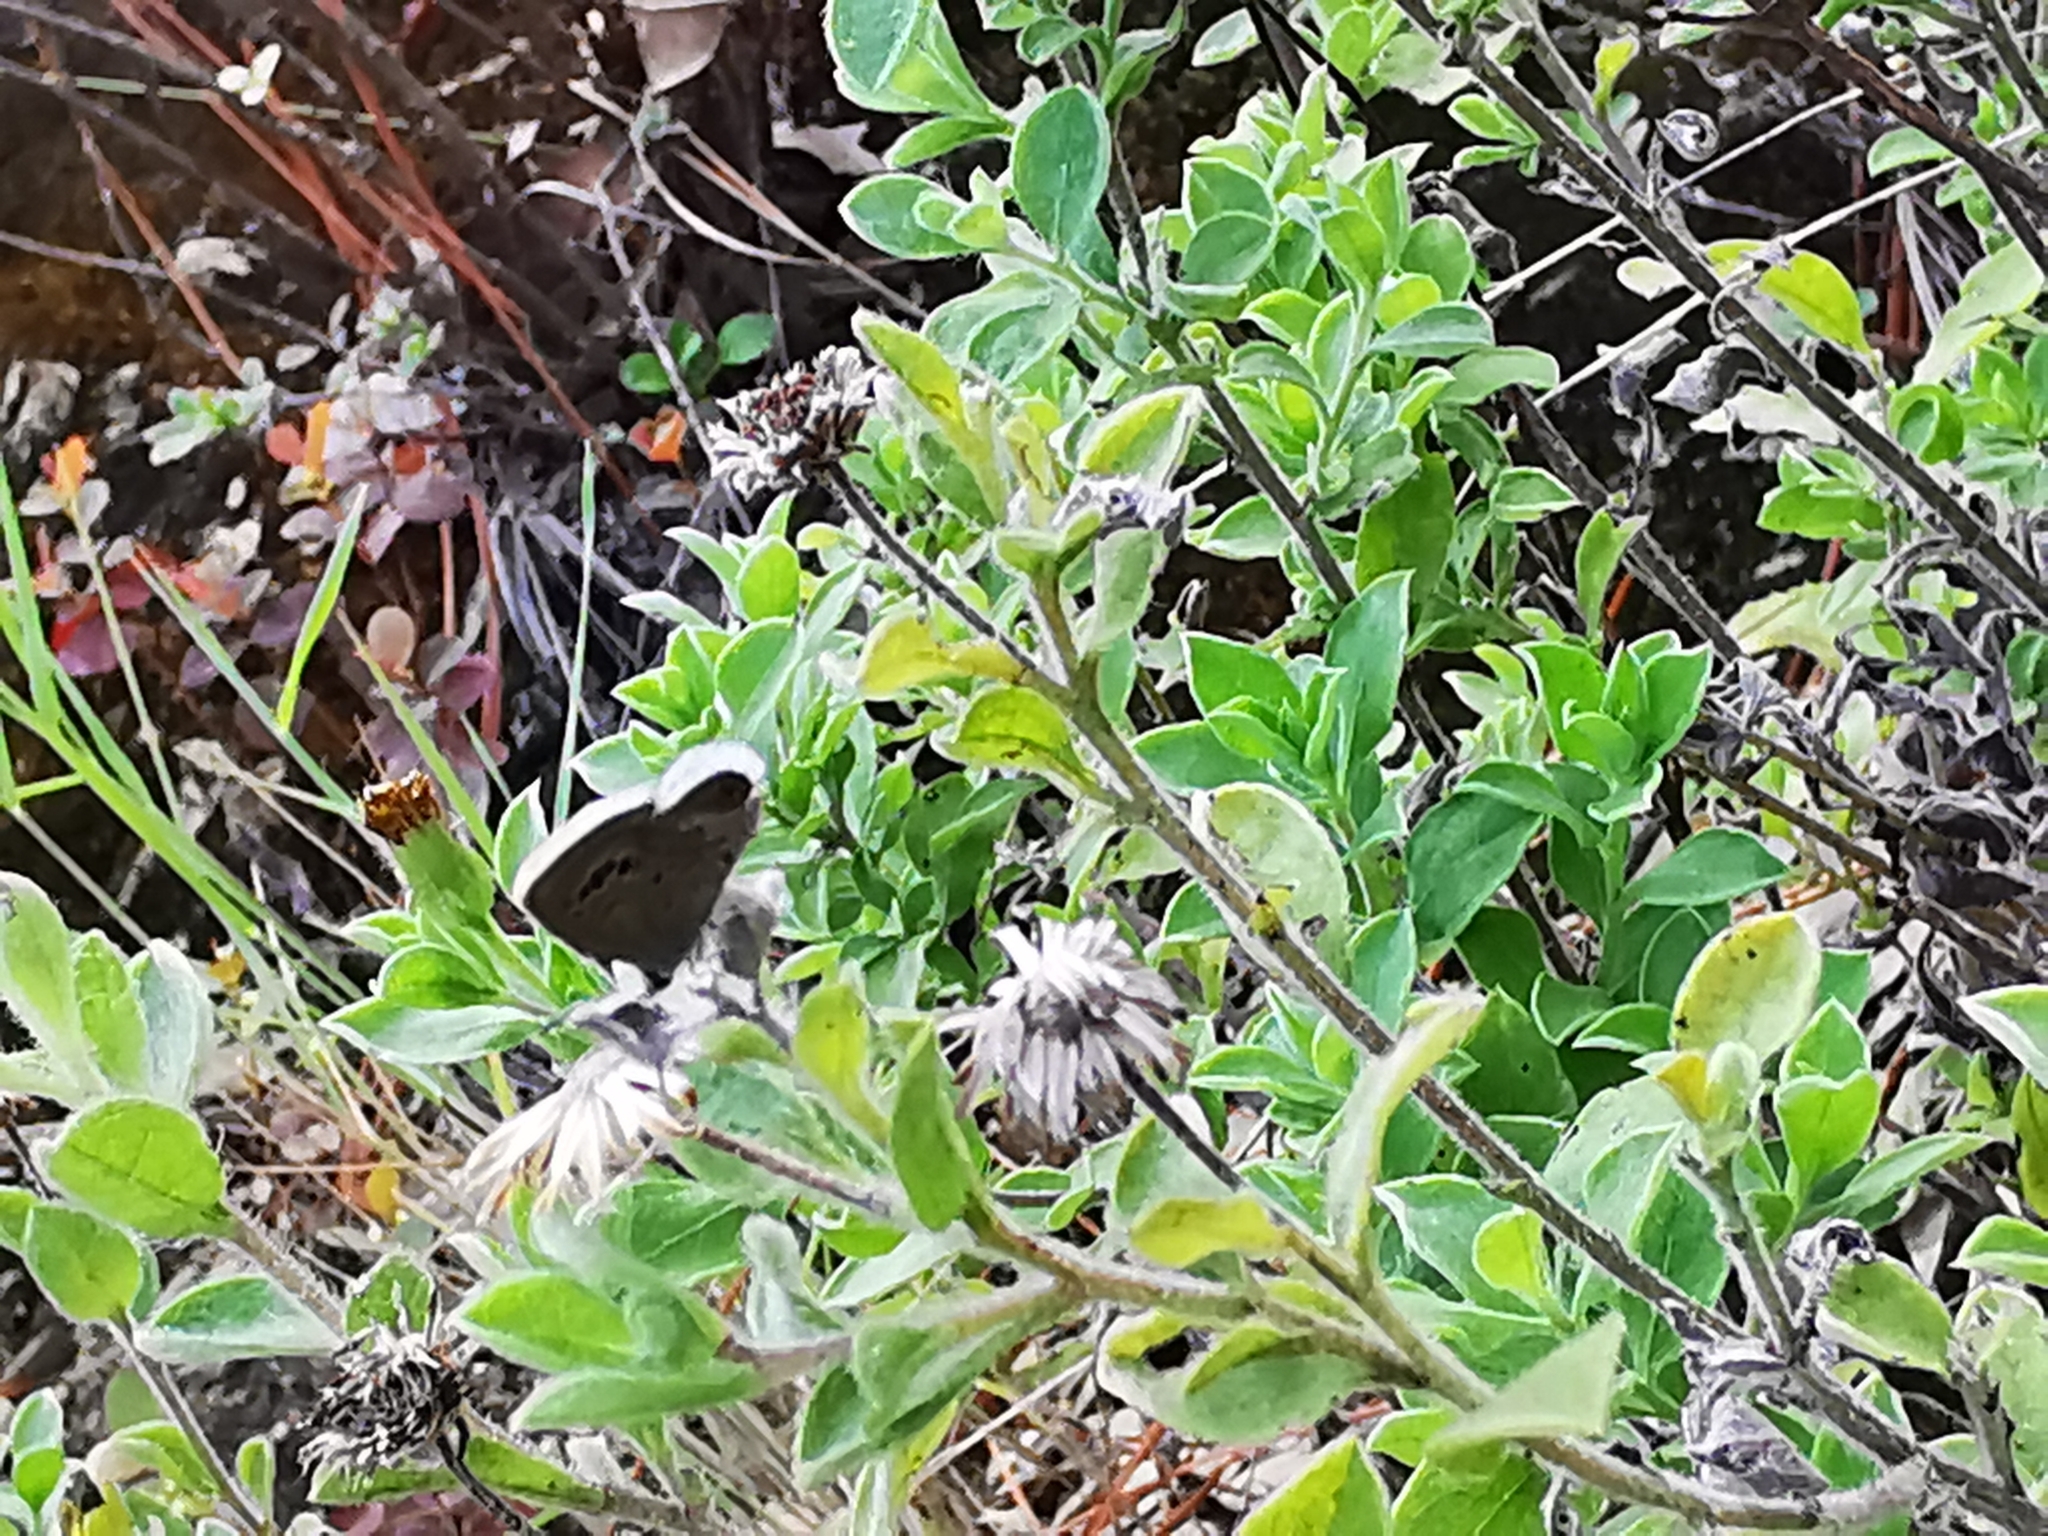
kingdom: Animalia
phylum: Arthropoda
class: Insecta
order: Lepidoptera
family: Lycaenidae
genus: Echinargus
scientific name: Echinargus isola
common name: Reakirt's blue
